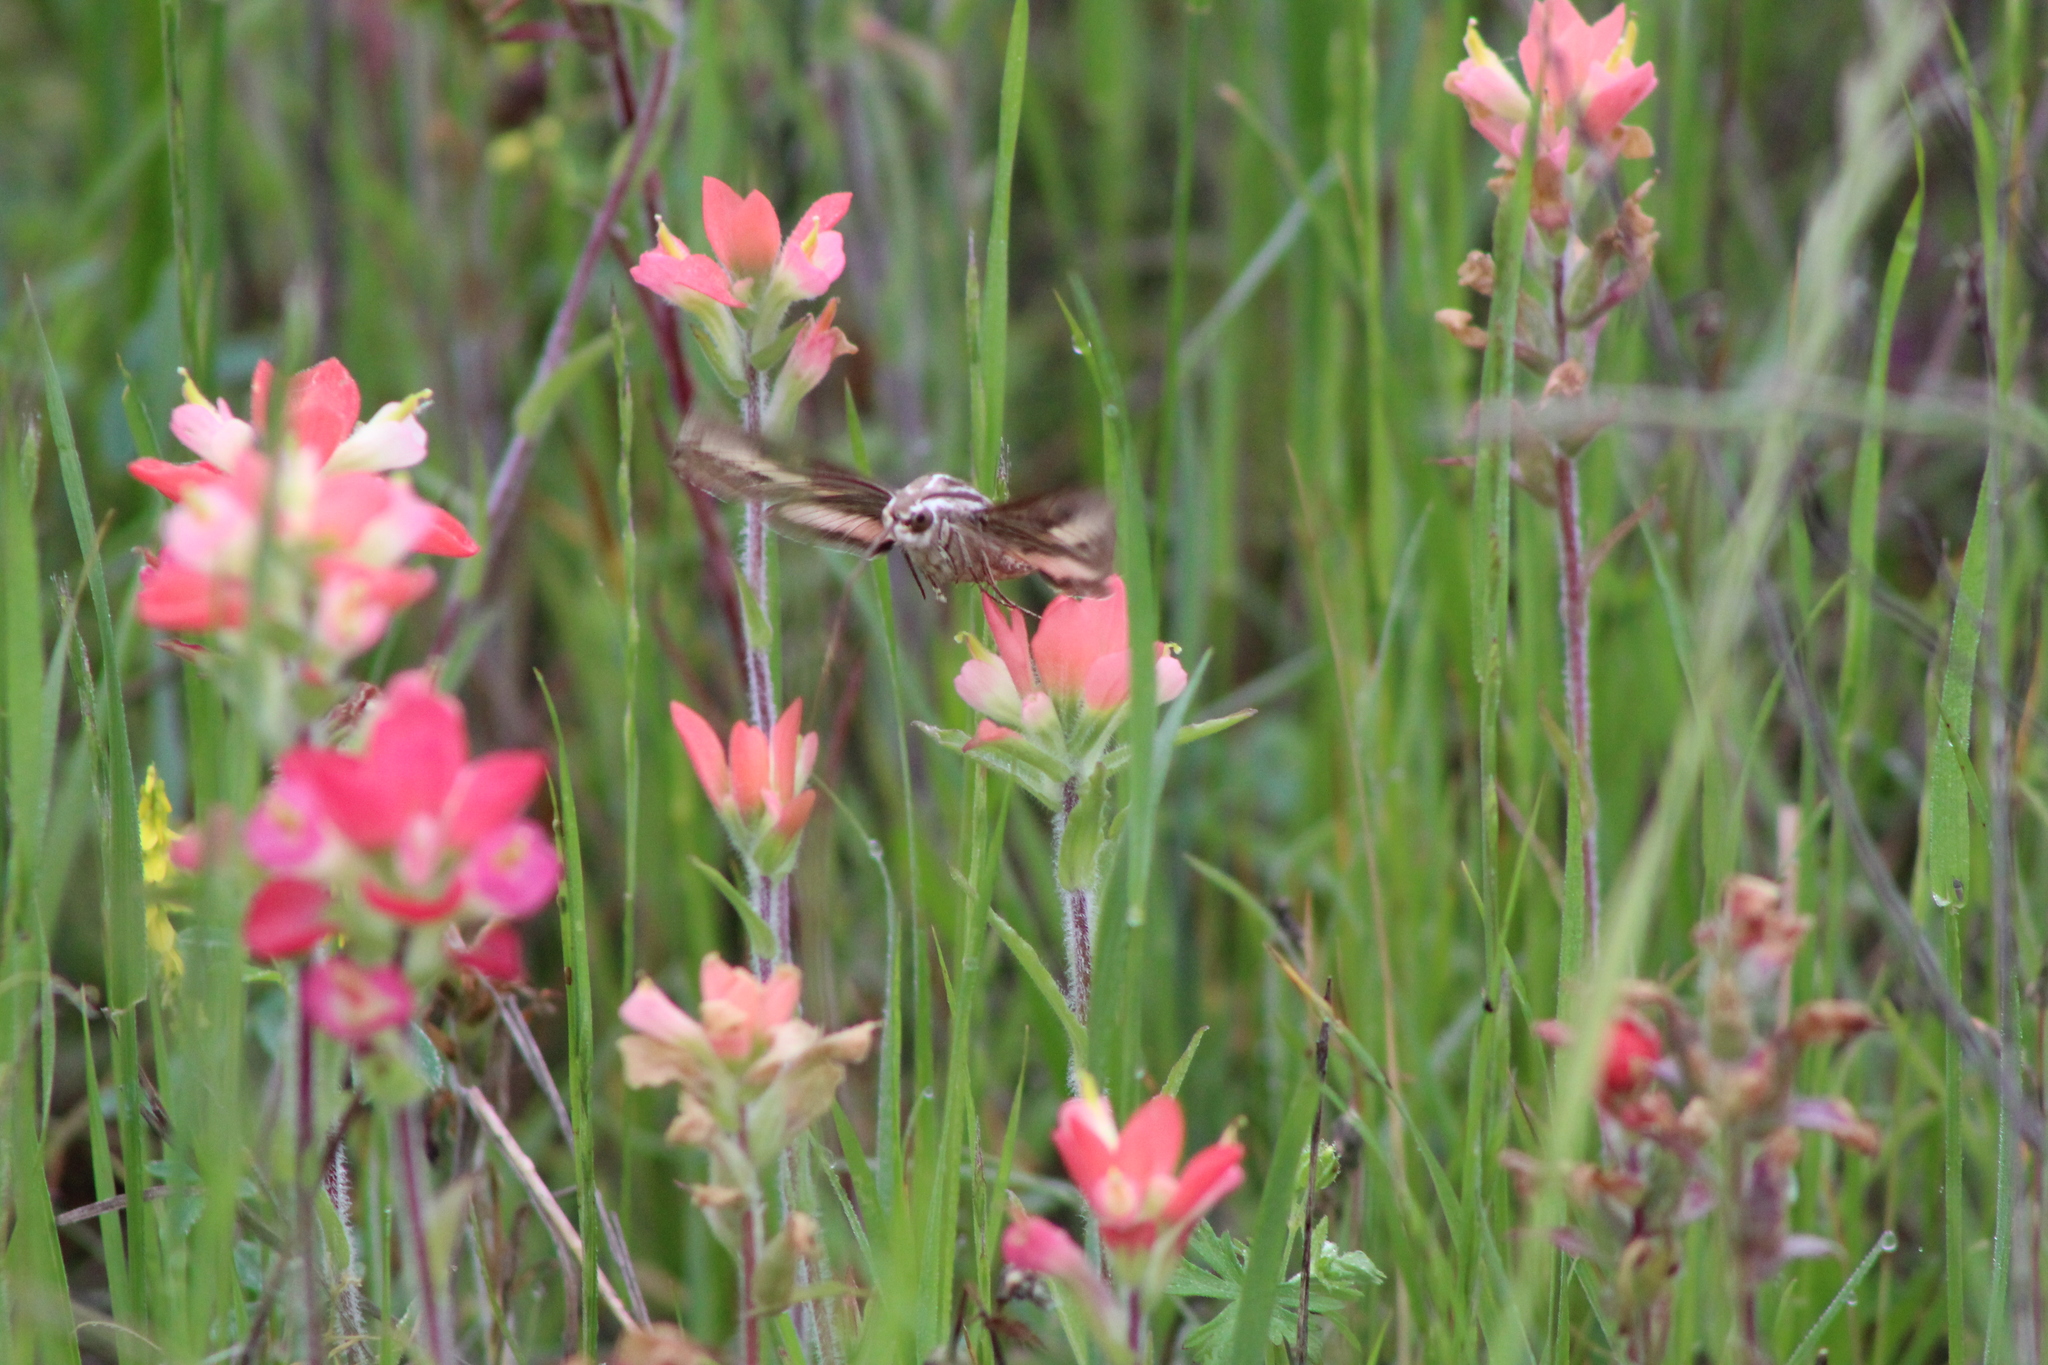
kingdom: Plantae
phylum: Tracheophyta
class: Magnoliopsida
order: Lamiales
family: Orobanchaceae
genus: Castilleja
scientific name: Castilleja indivisa
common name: Texas paintbrush
